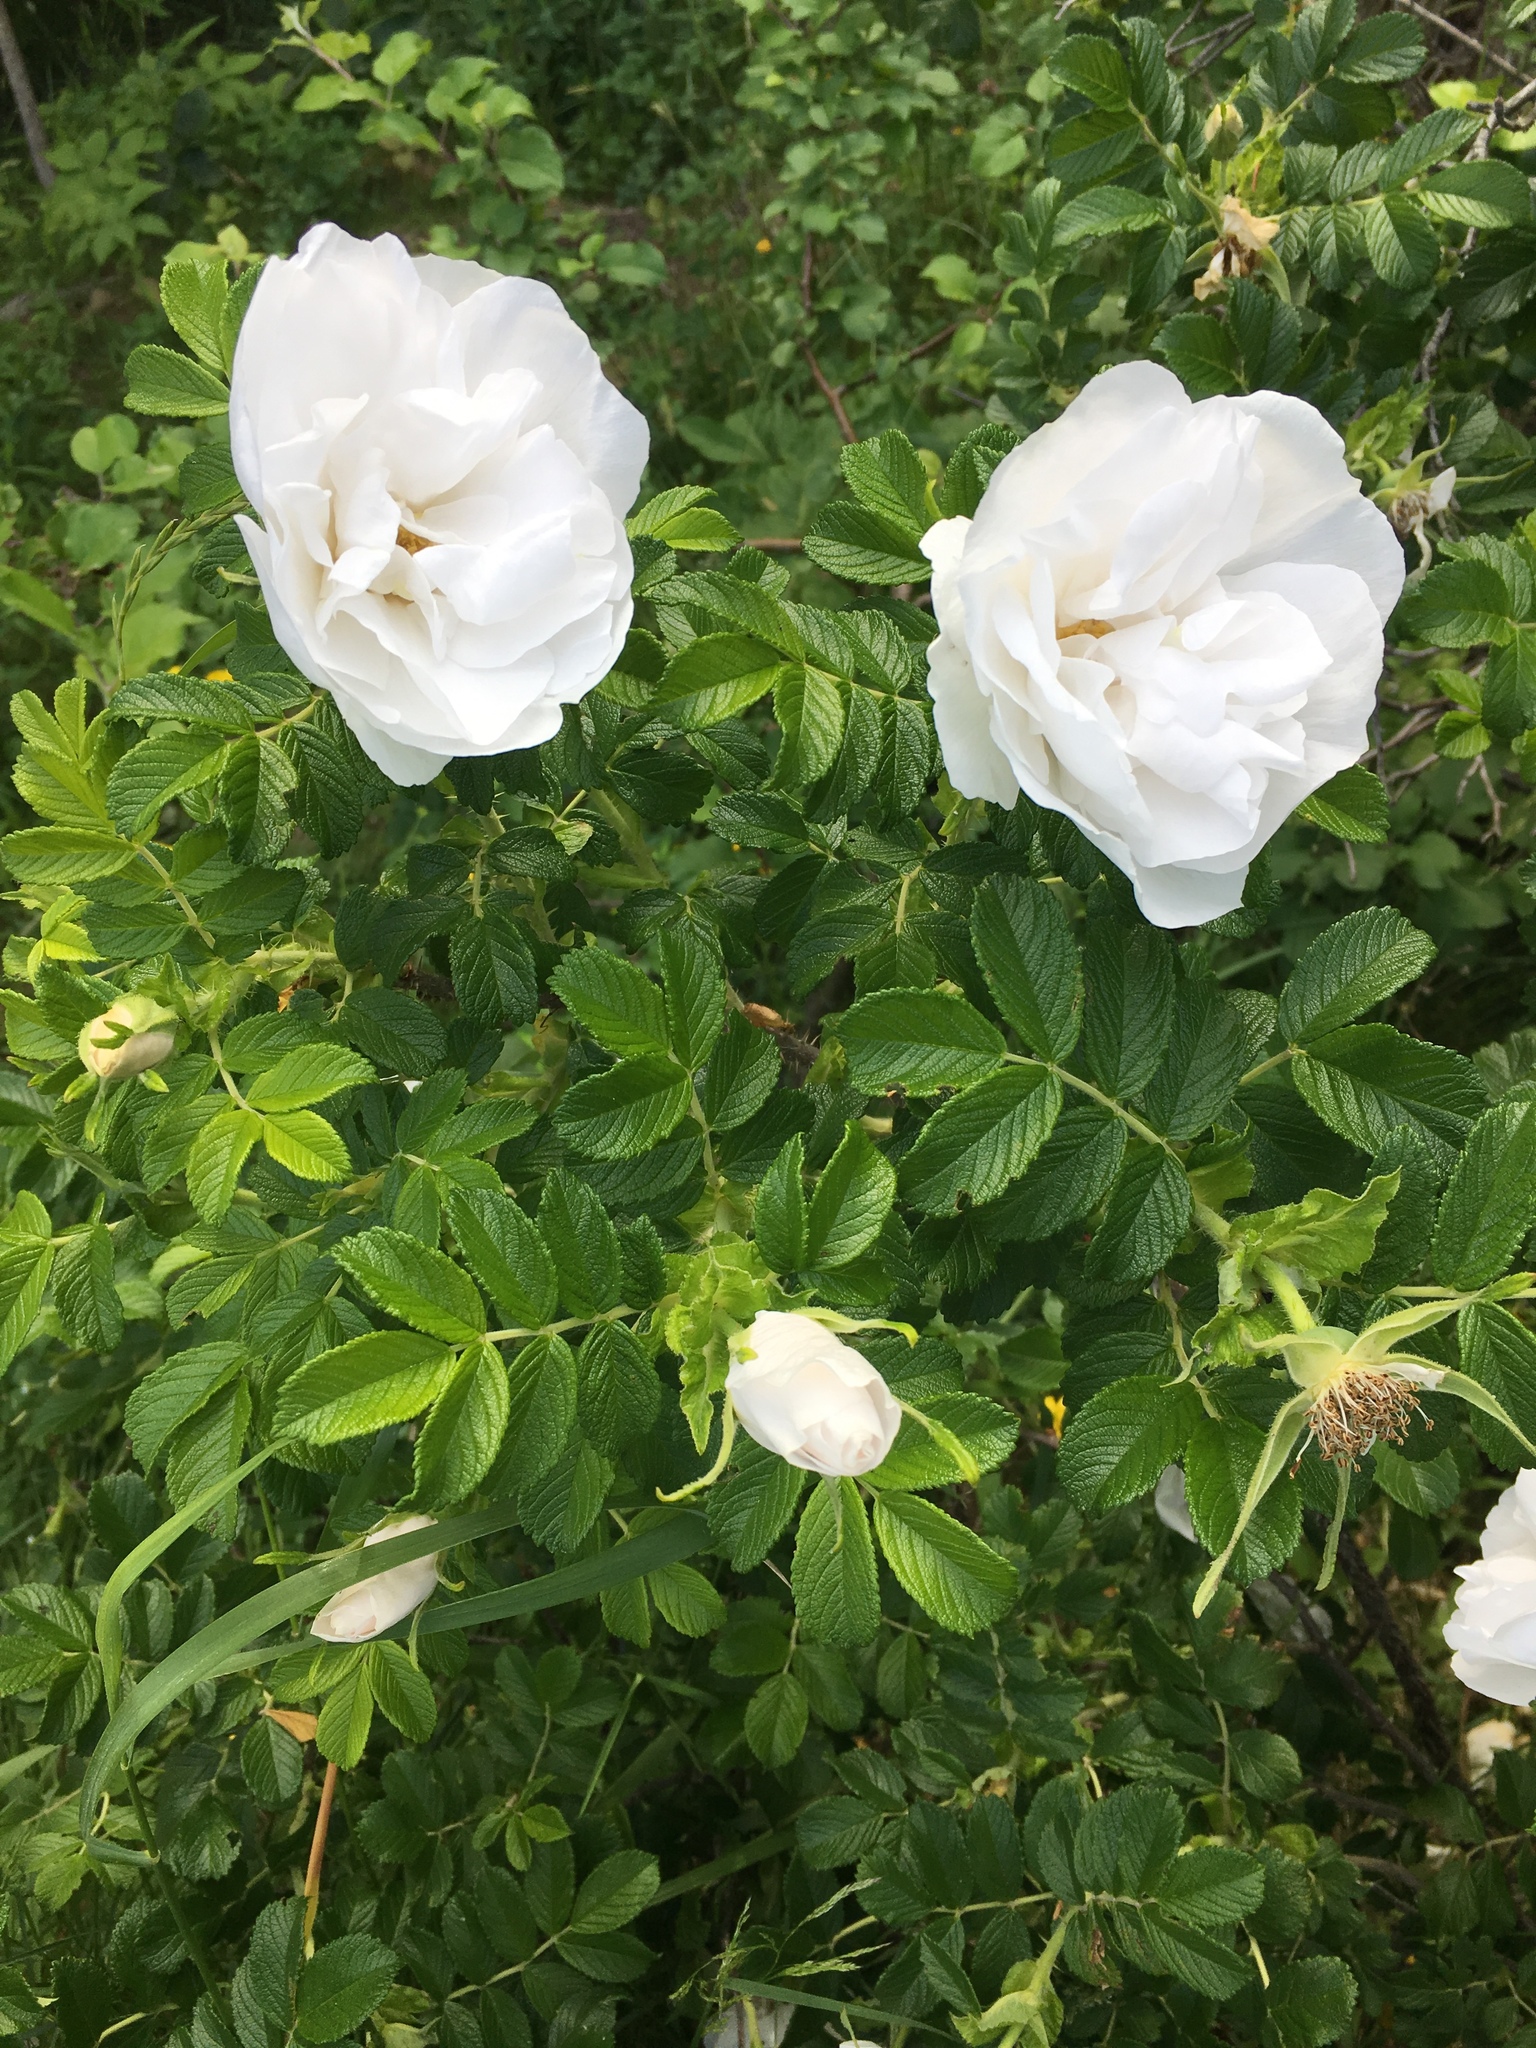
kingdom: Plantae
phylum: Tracheophyta
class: Magnoliopsida
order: Rosales
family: Rosaceae
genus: Rosa
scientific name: Rosa rugosa
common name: Japanese rose
